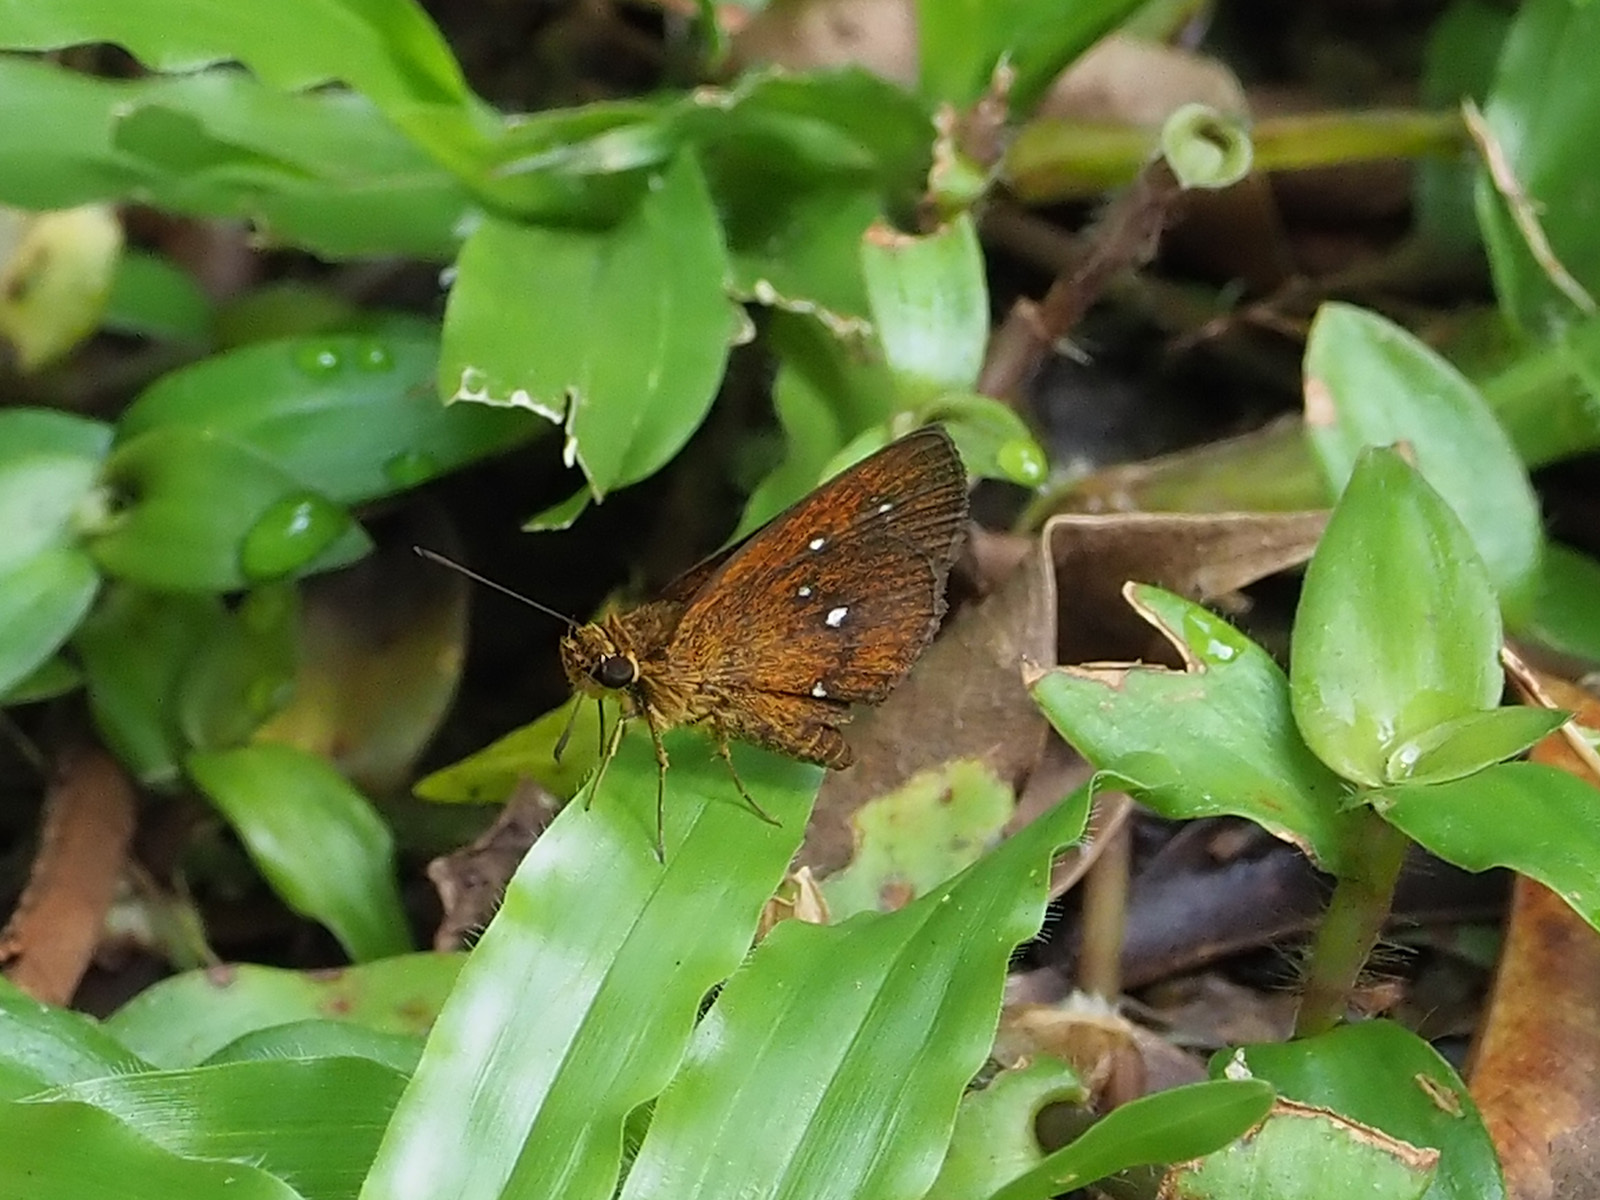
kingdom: Animalia
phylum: Arthropoda
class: Insecta
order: Lepidoptera
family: Hesperiidae
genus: Iambrix
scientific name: Iambrix salsala
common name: Chestnut bob
